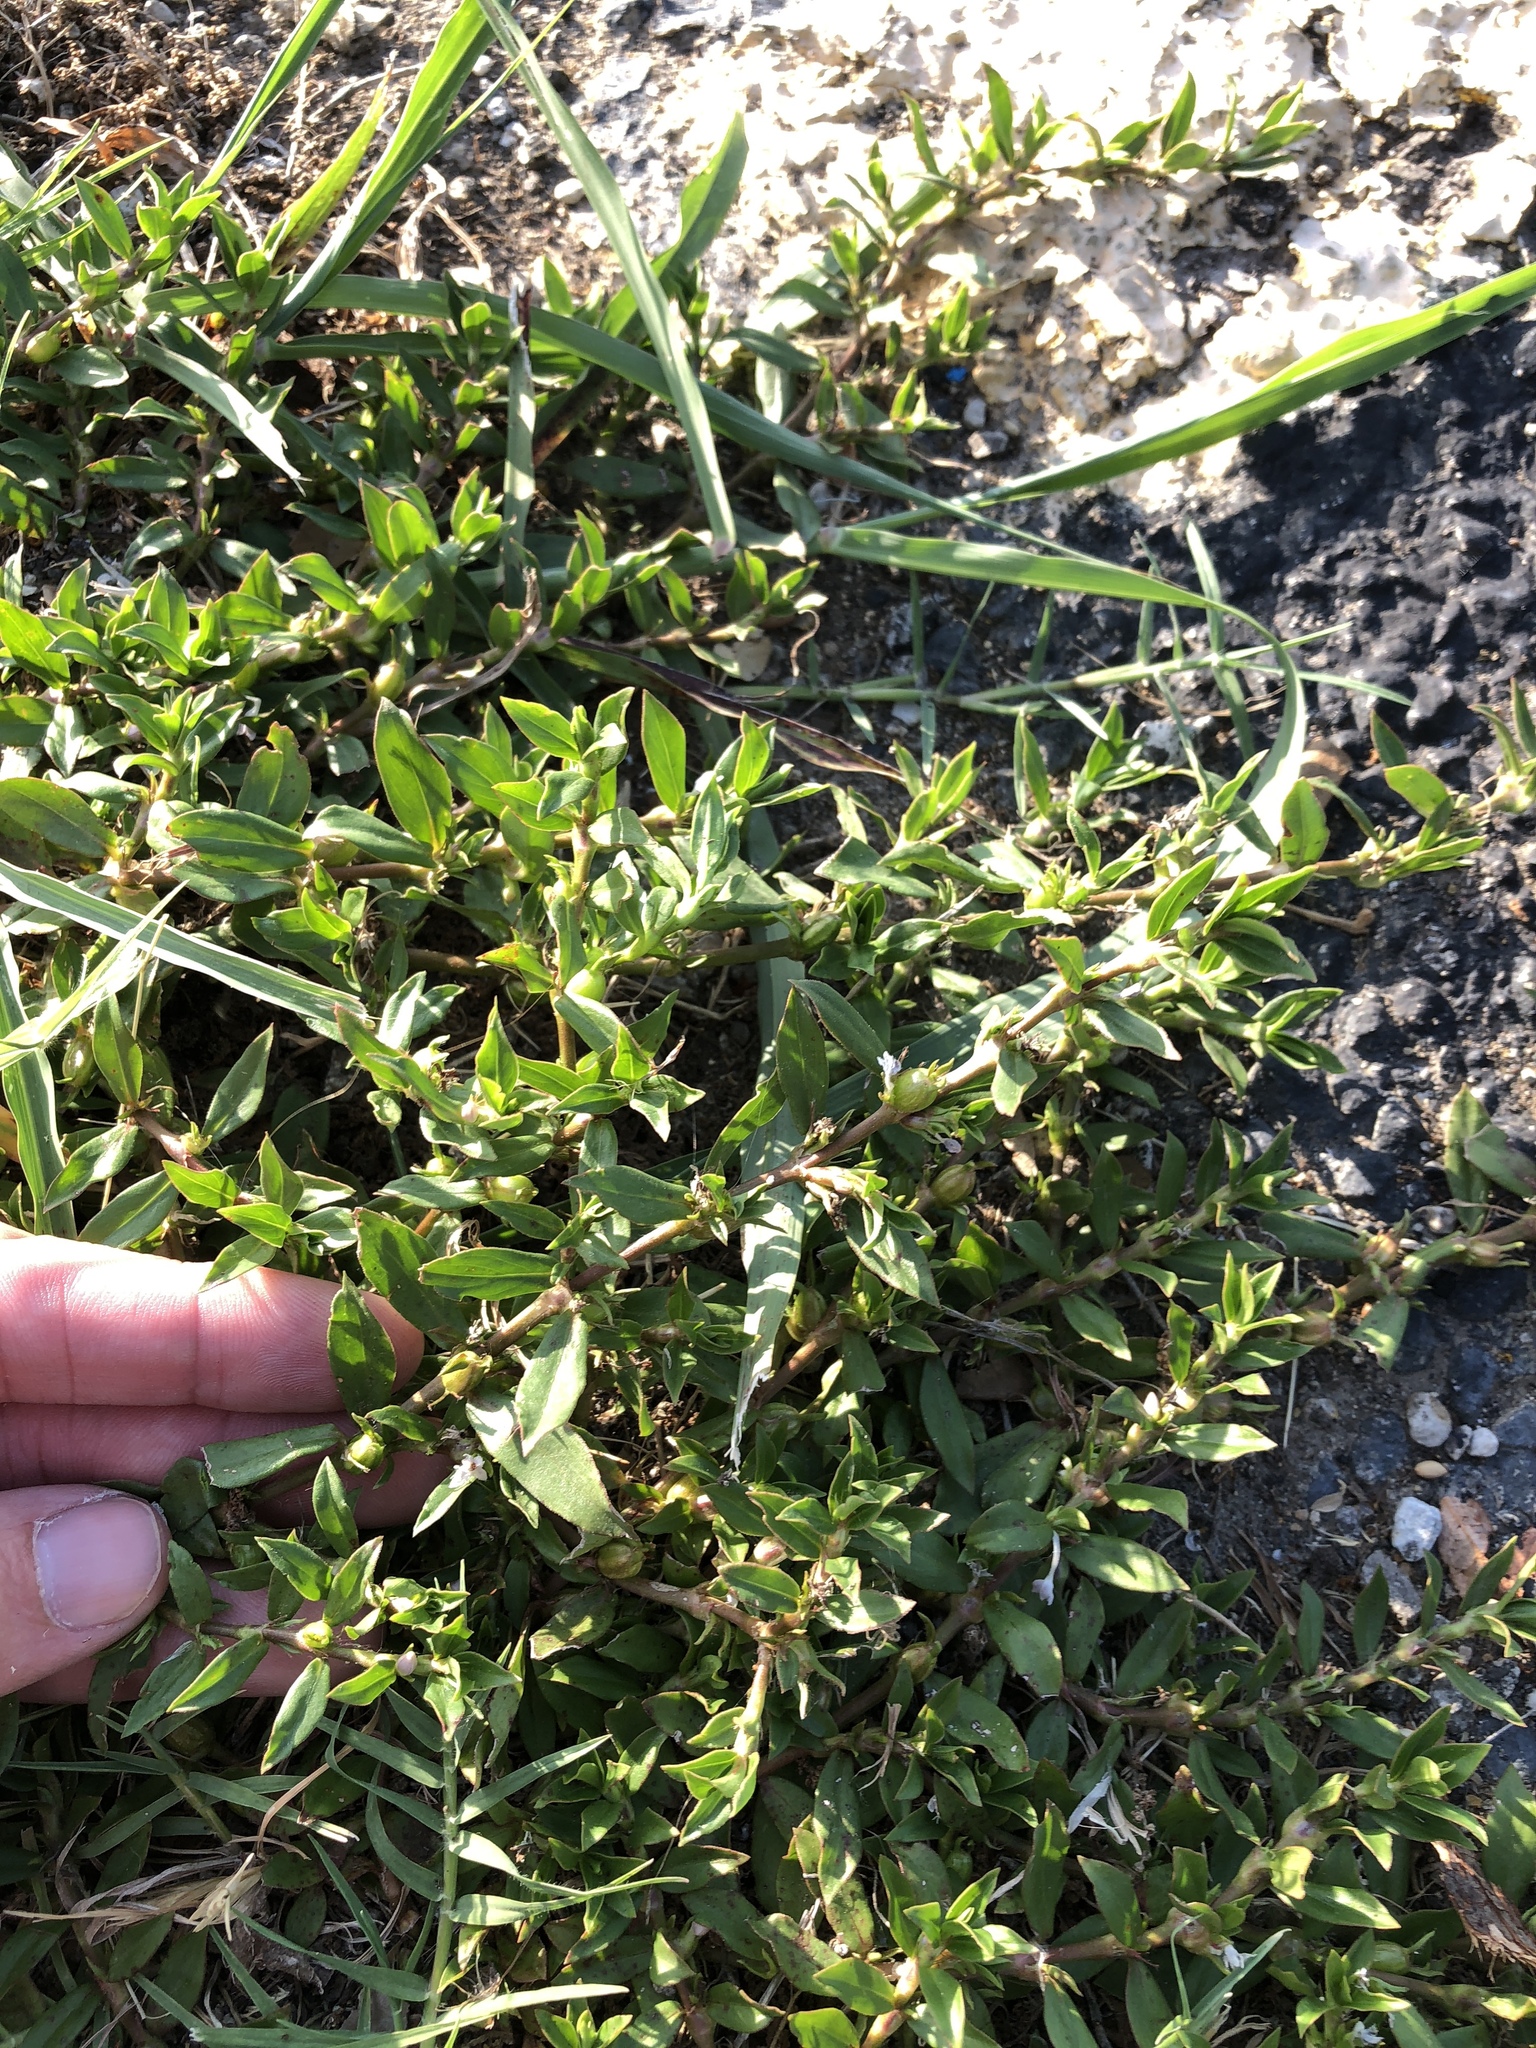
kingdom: Plantae
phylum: Tracheophyta
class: Magnoliopsida
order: Gentianales
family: Rubiaceae
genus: Diodia
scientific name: Diodia virginiana
